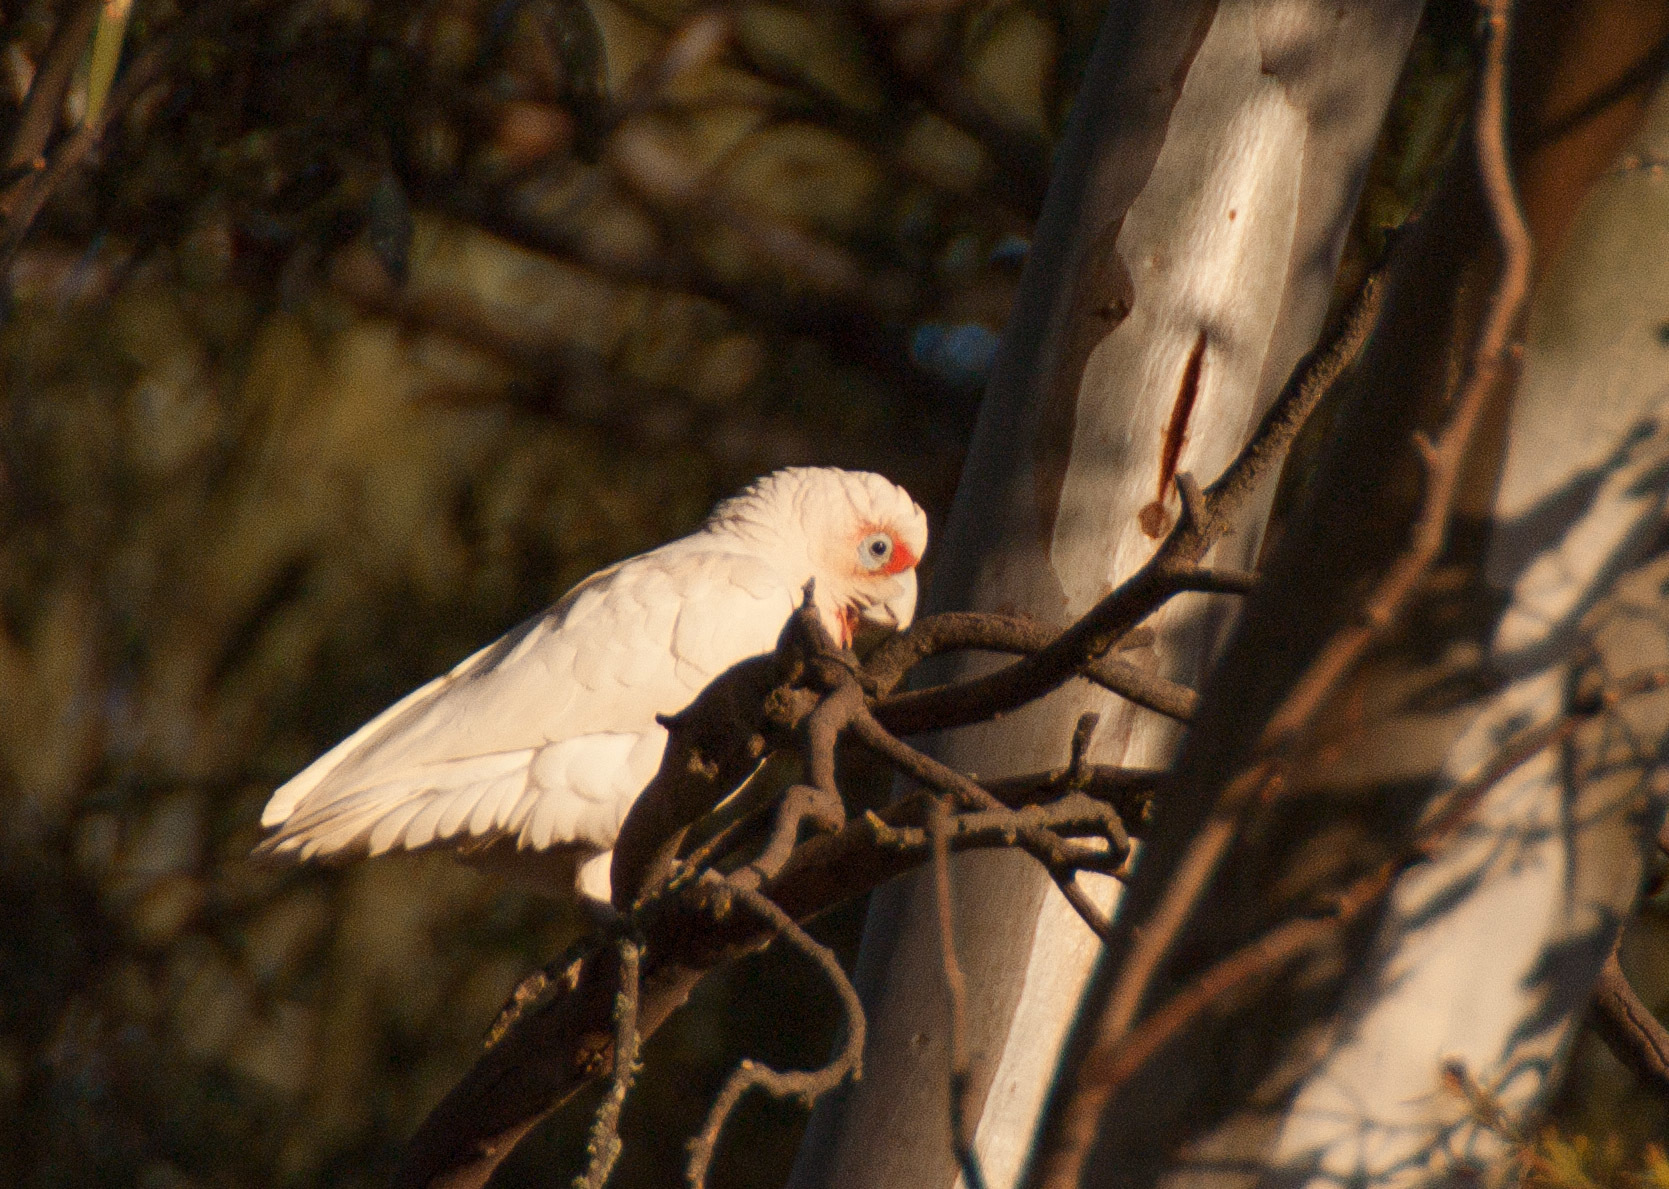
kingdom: Animalia
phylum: Chordata
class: Aves
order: Psittaciformes
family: Psittacidae
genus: Cacatua
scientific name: Cacatua tenuirostris
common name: Long-billed corella
